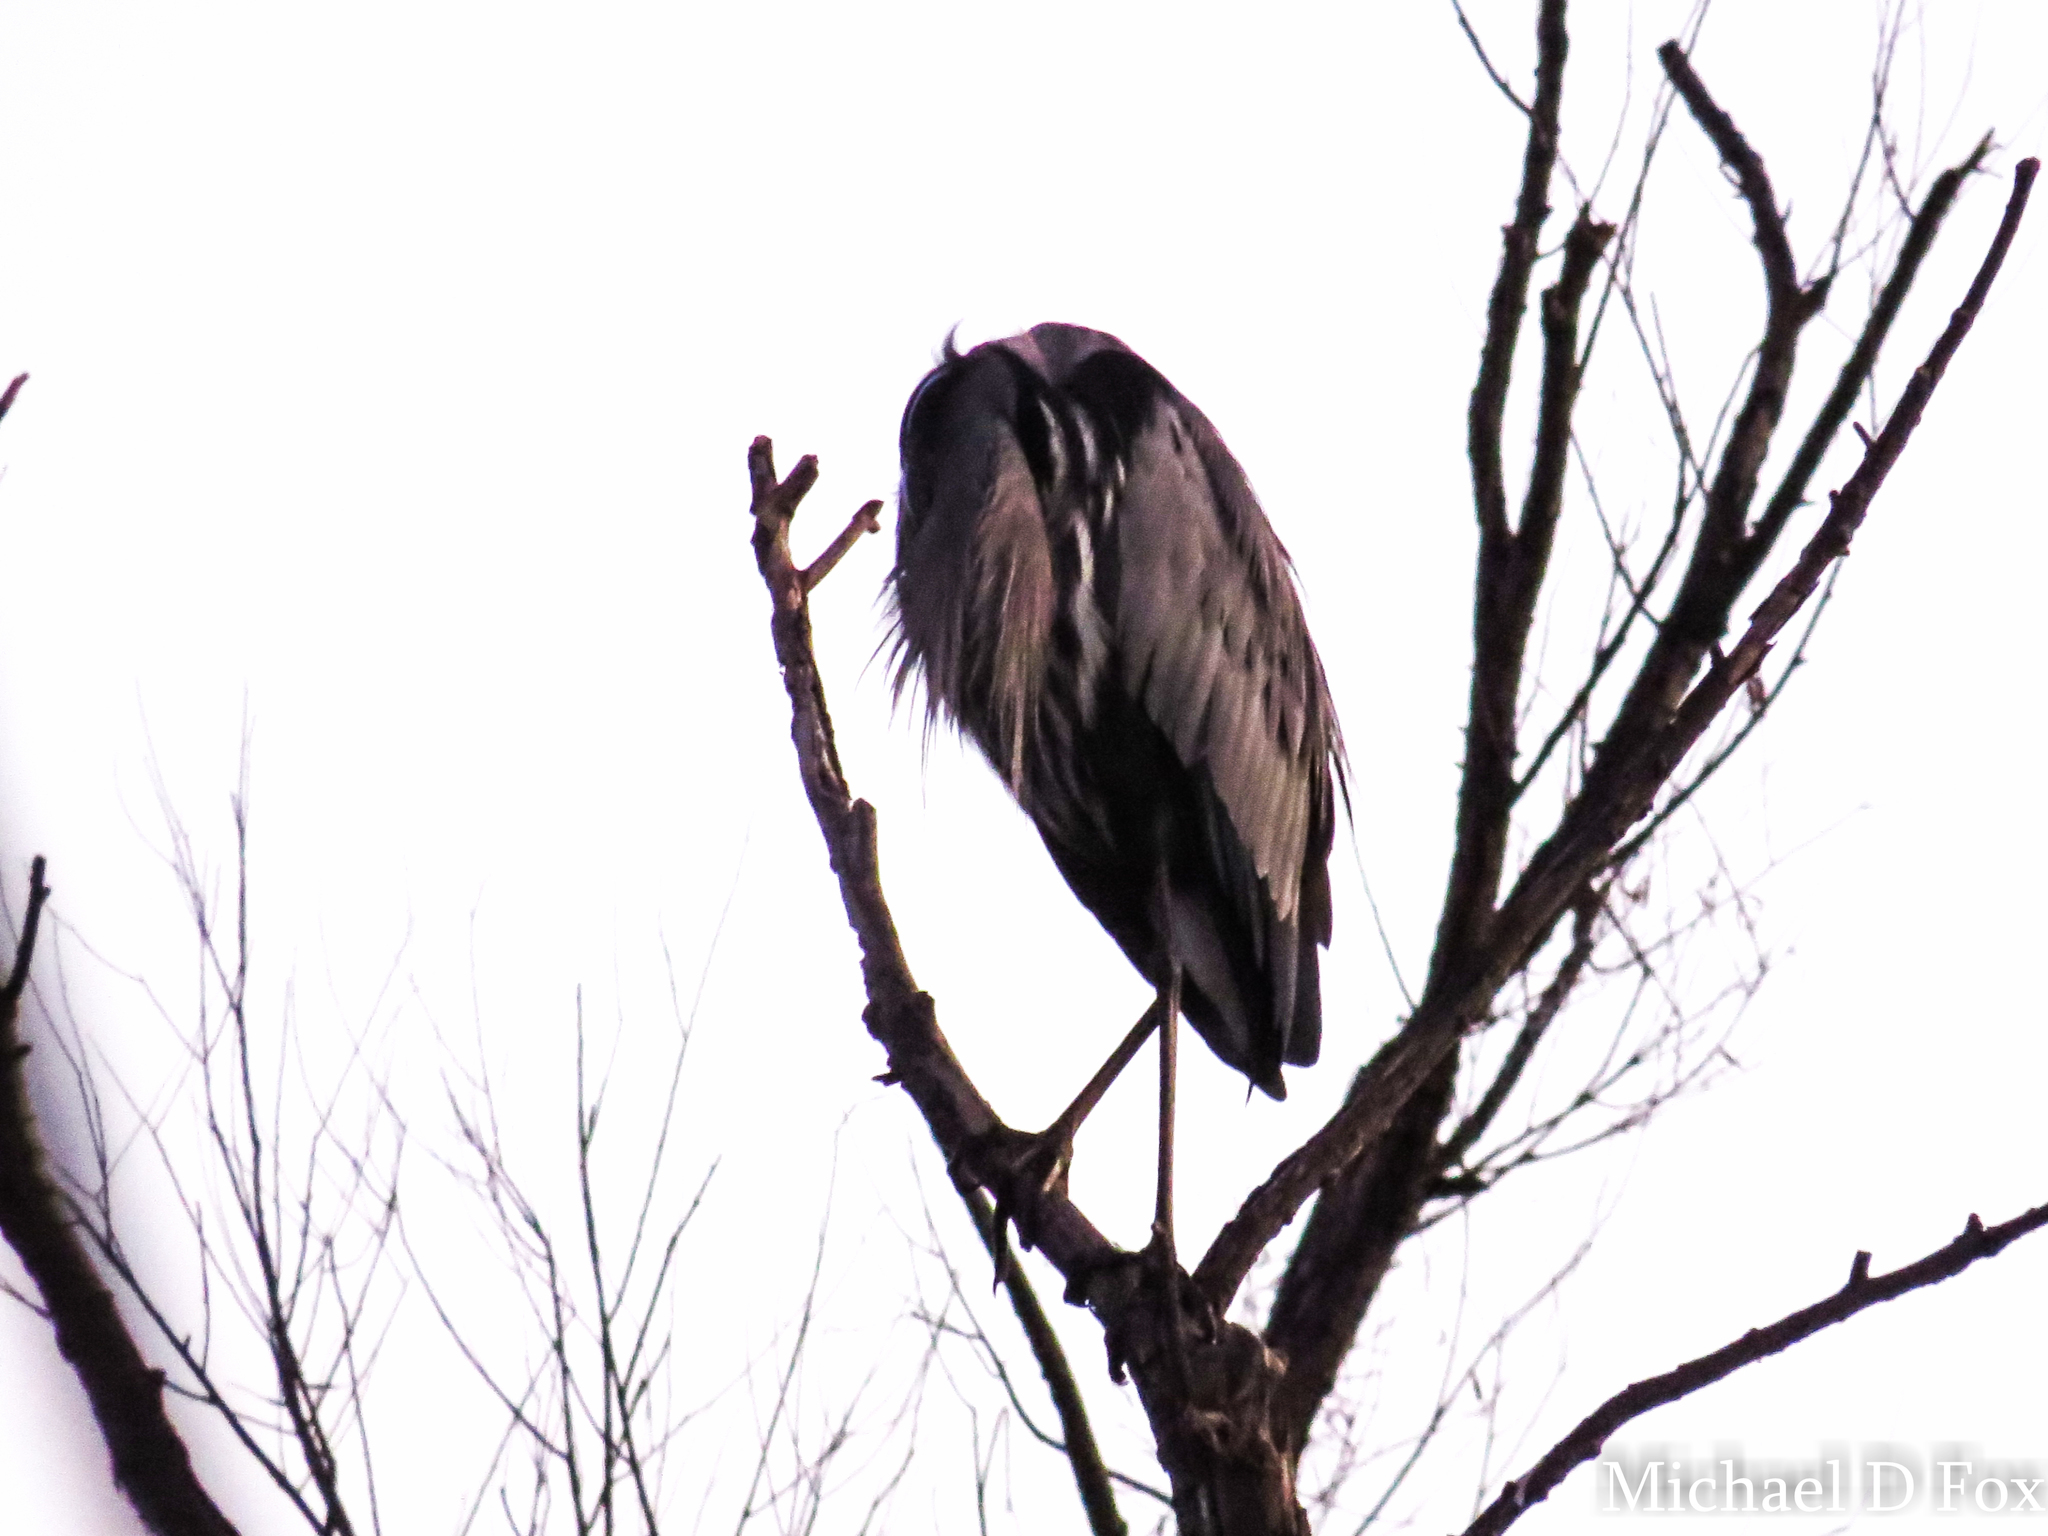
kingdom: Animalia
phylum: Chordata
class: Aves
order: Pelecaniformes
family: Ardeidae
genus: Ardea
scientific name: Ardea herodias
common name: Great blue heron
